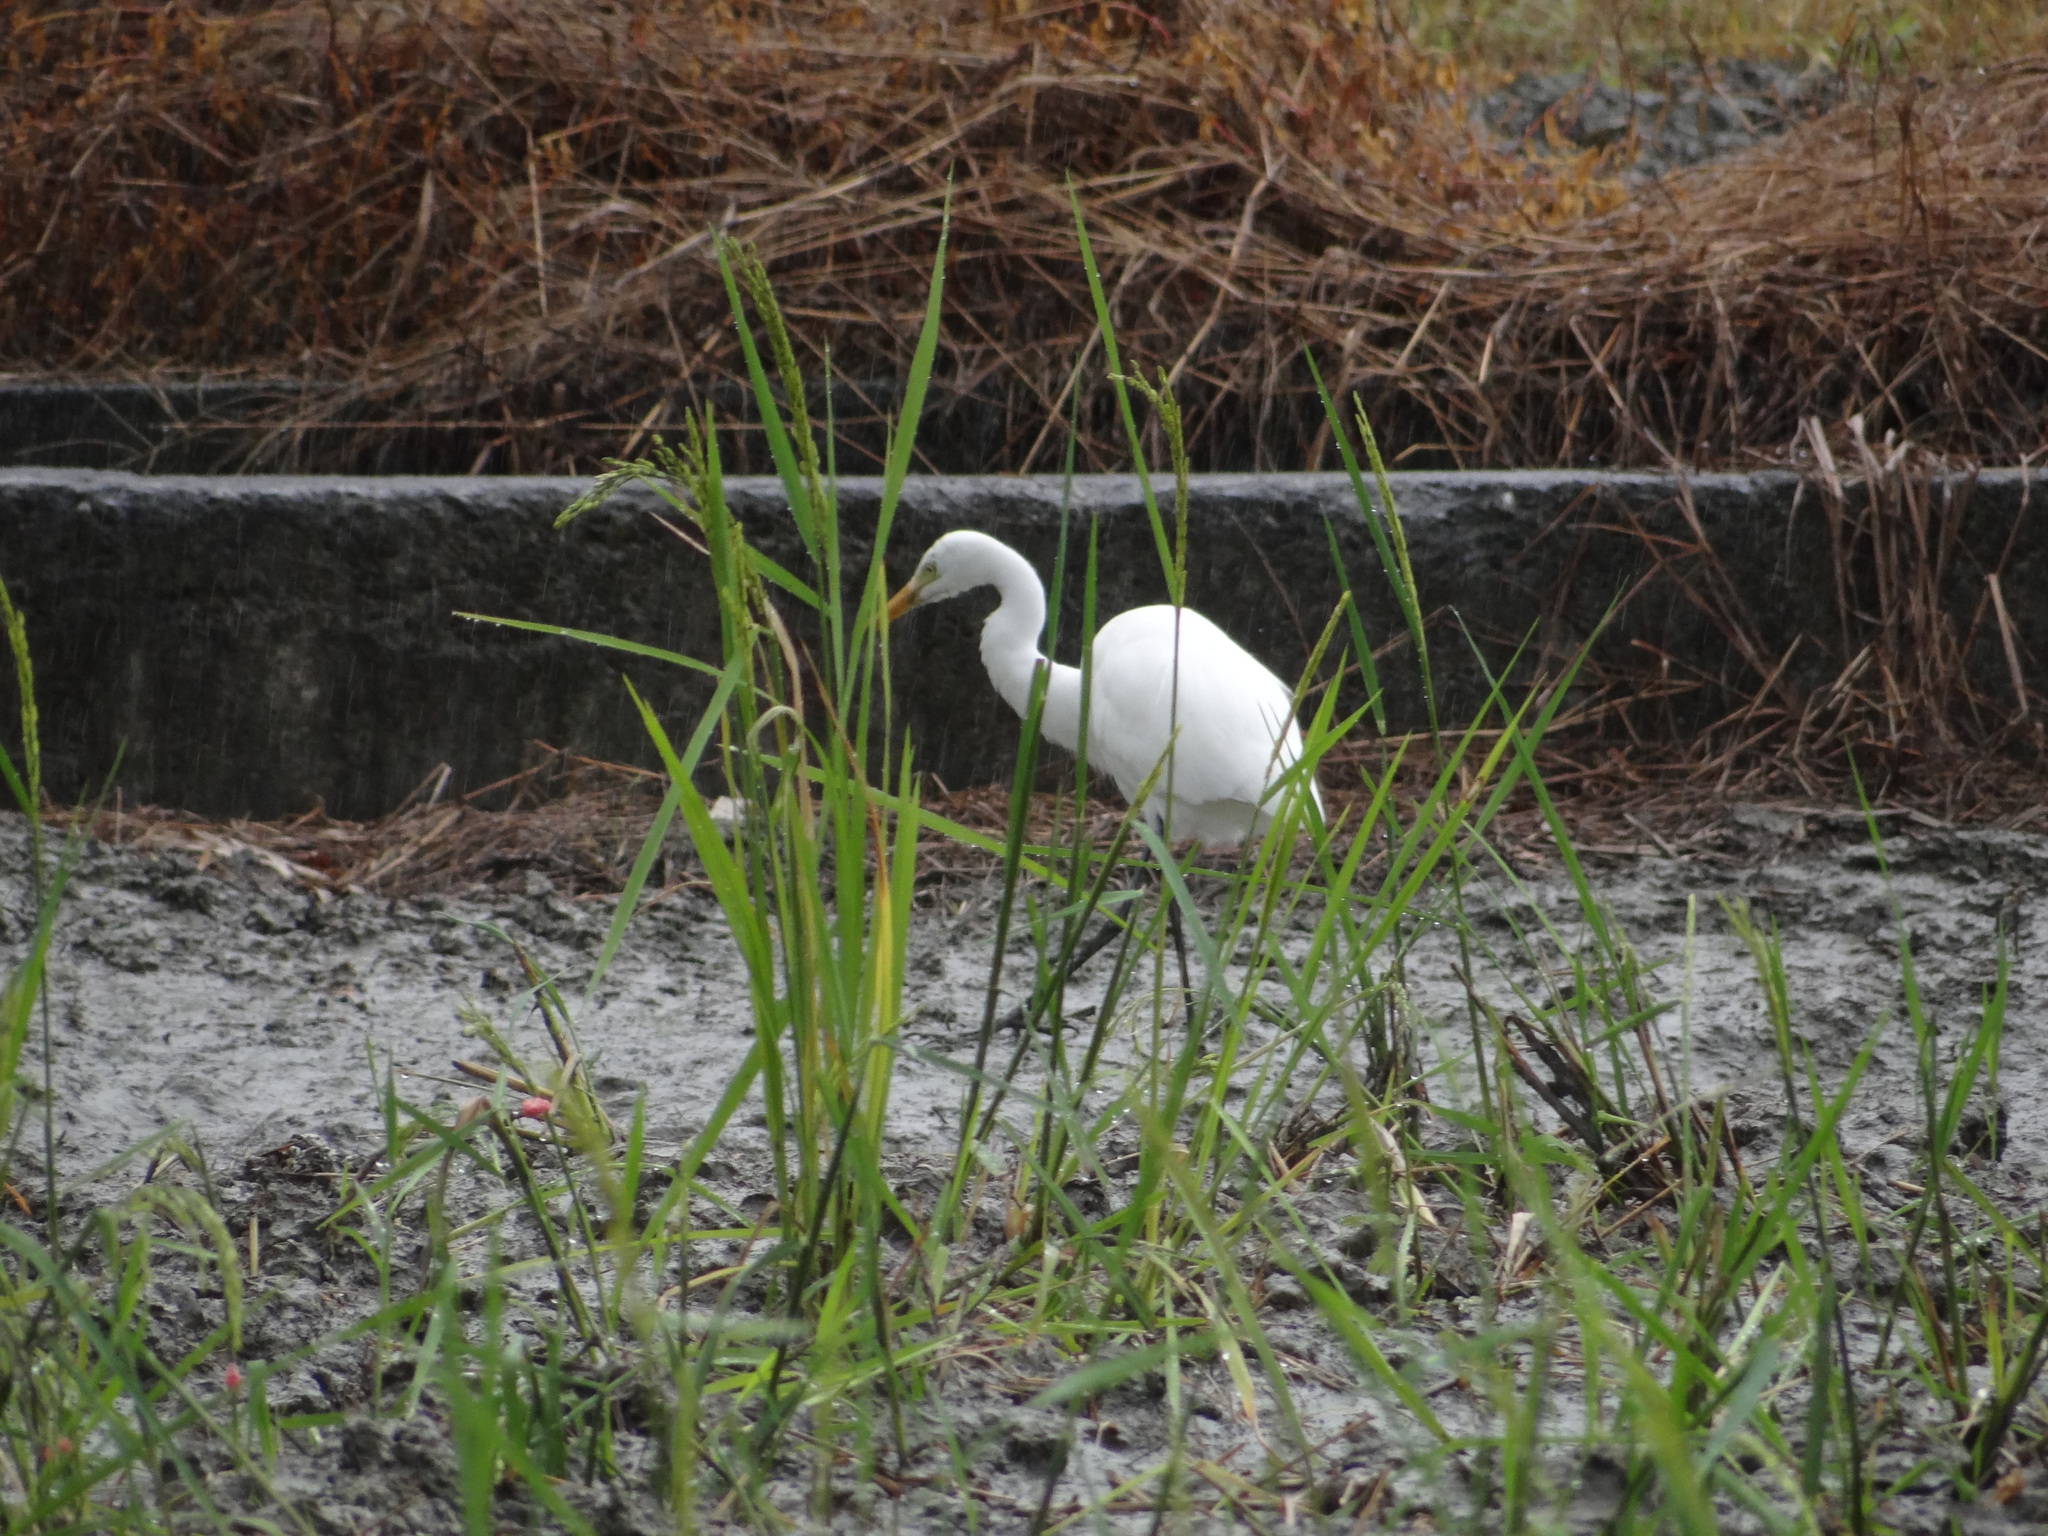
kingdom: Animalia
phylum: Chordata
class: Aves
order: Pelecaniformes
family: Ardeidae
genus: Egretta
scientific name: Egretta intermedia
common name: Intermediate egret
